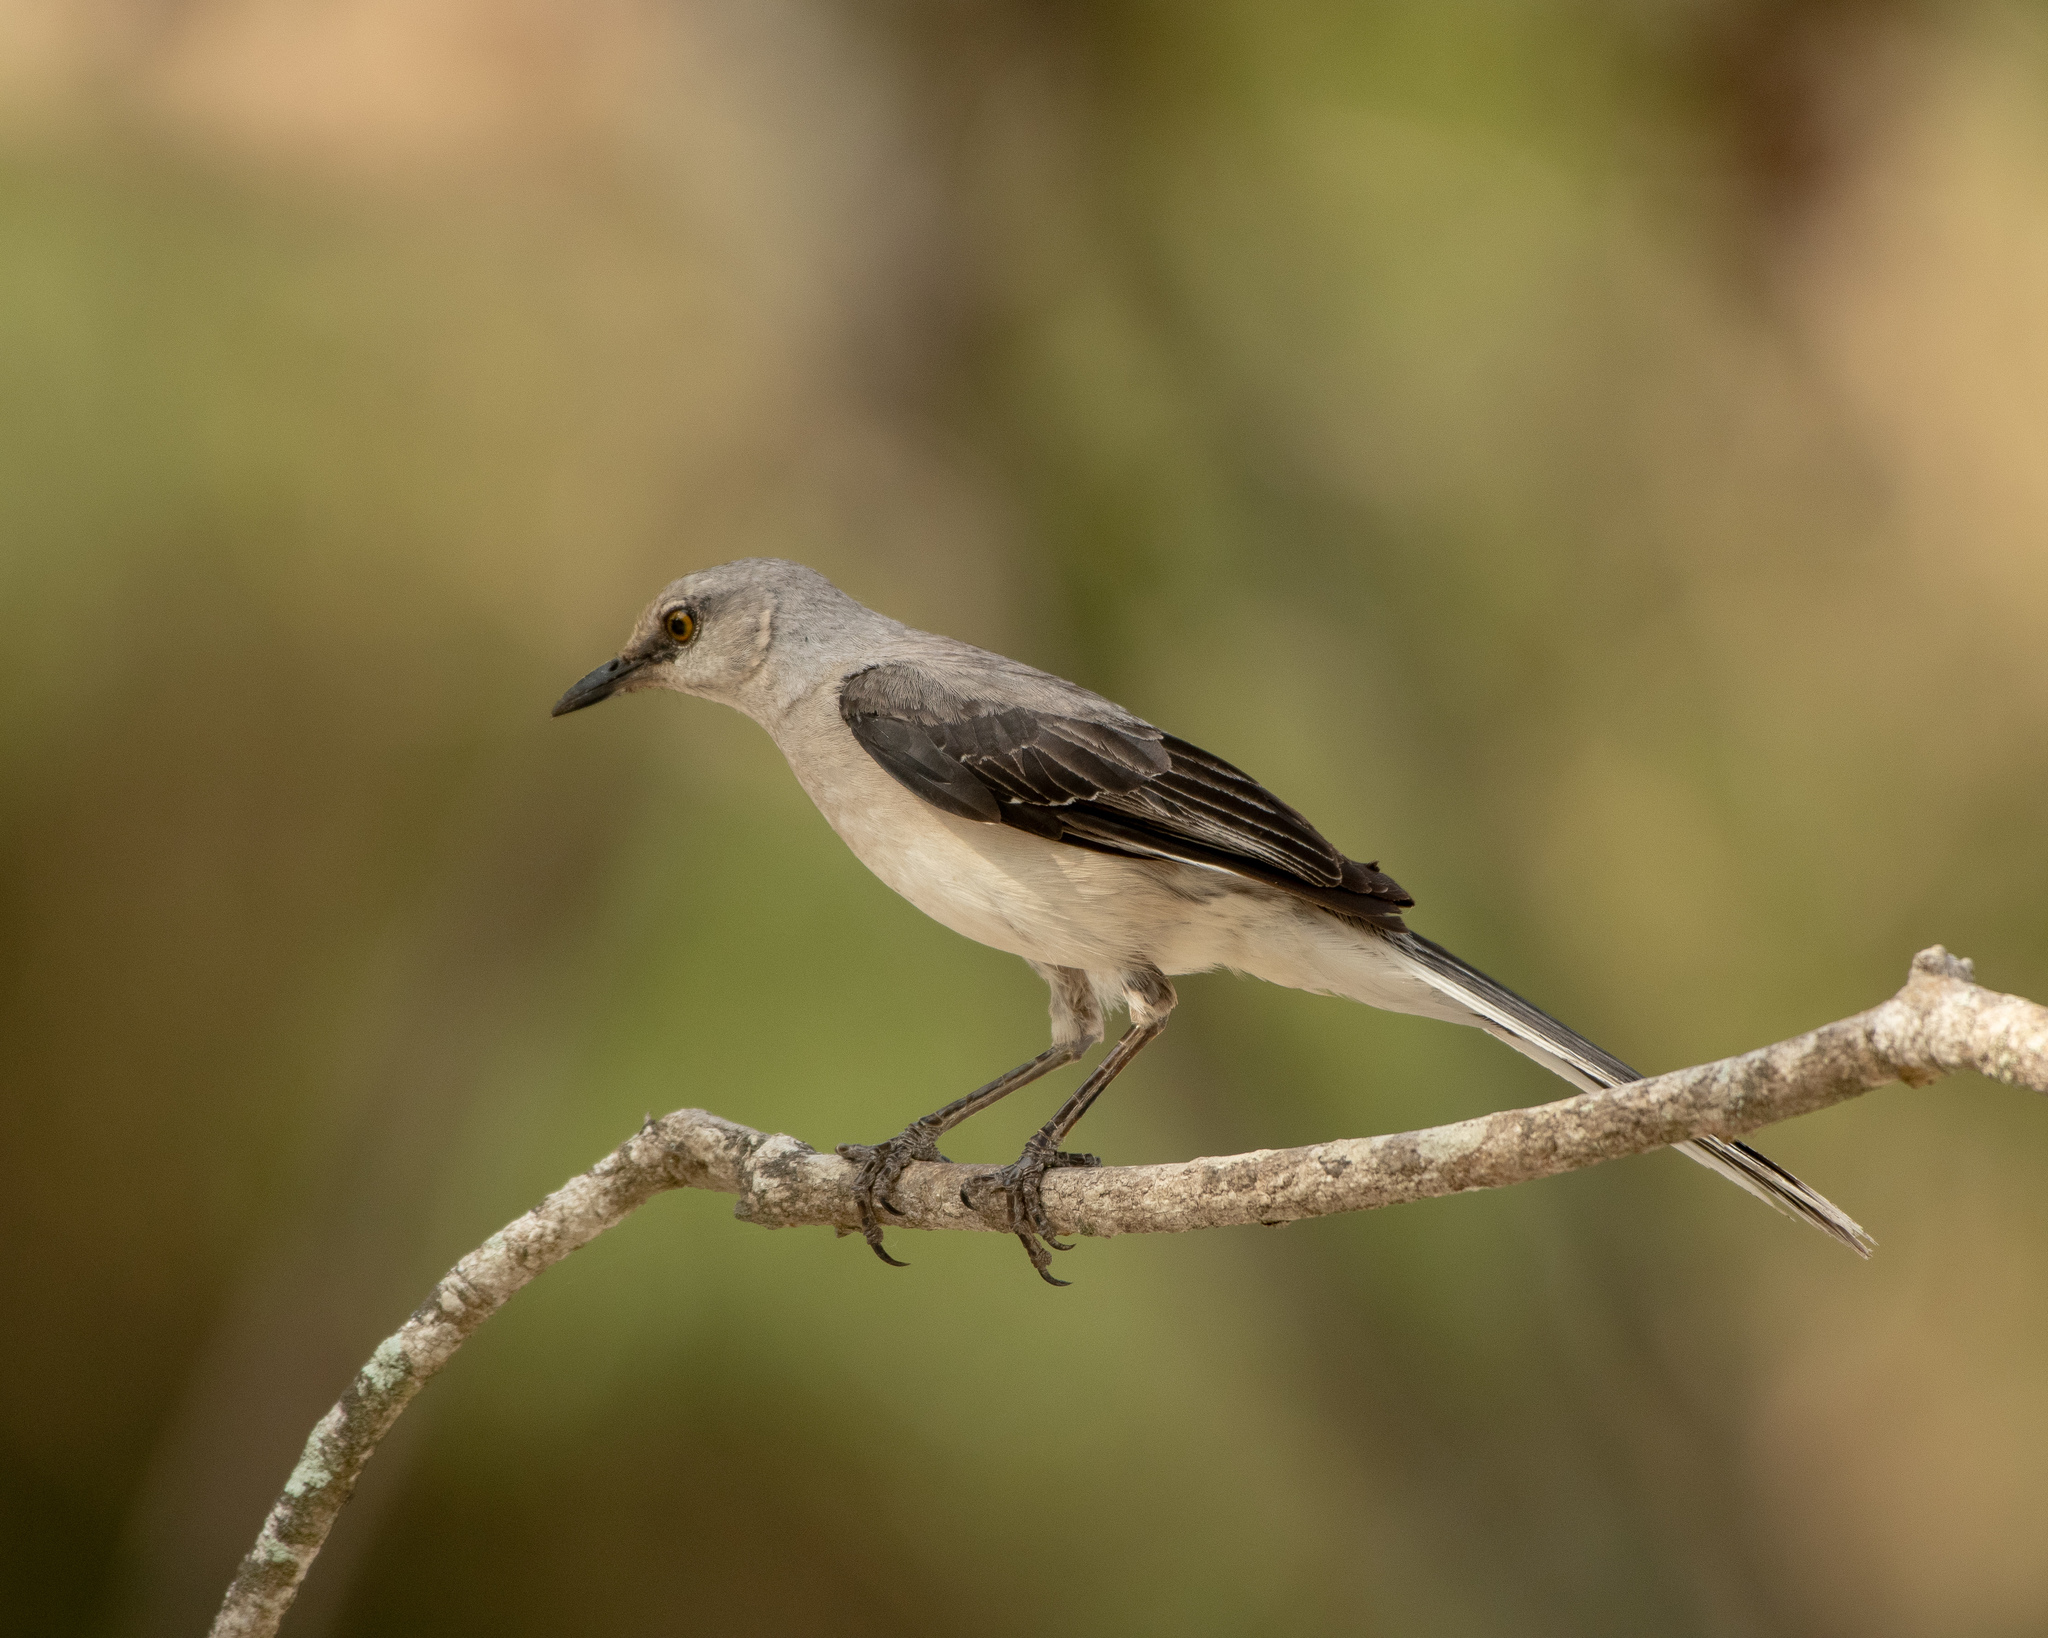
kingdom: Animalia
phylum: Chordata
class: Aves
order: Passeriformes
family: Mimidae
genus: Mimus
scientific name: Mimus gilvus
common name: Tropical mockingbird
